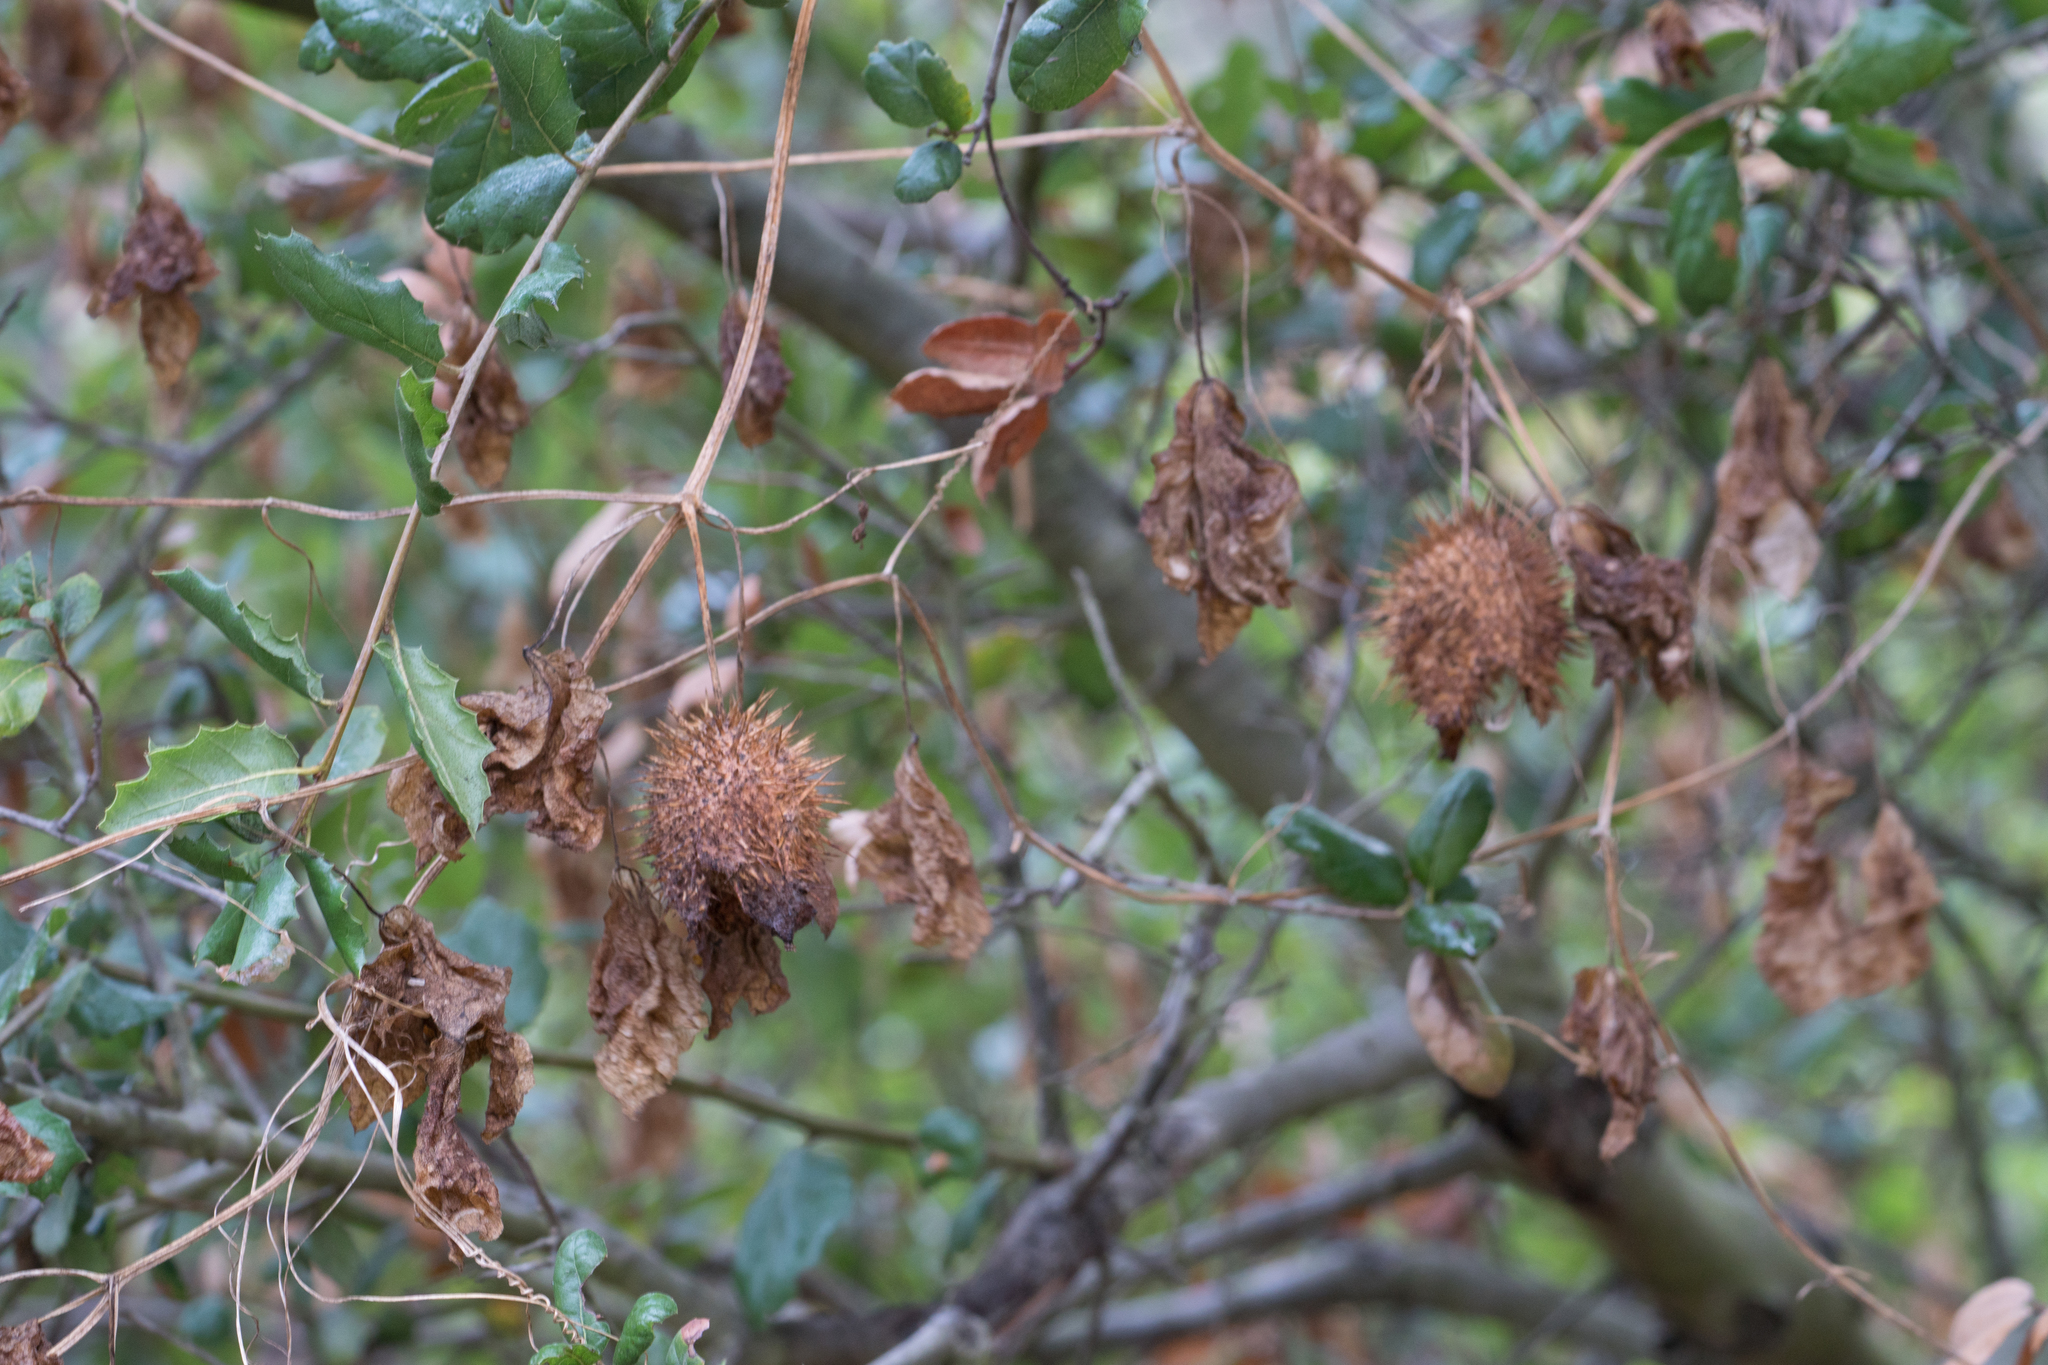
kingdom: Plantae
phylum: Tracheophyta
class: Magnoliopsida
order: Cucurbitales
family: Cucurbitaceae
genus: Marah
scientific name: Marah macrocarpa
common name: Cucamonga manroot
